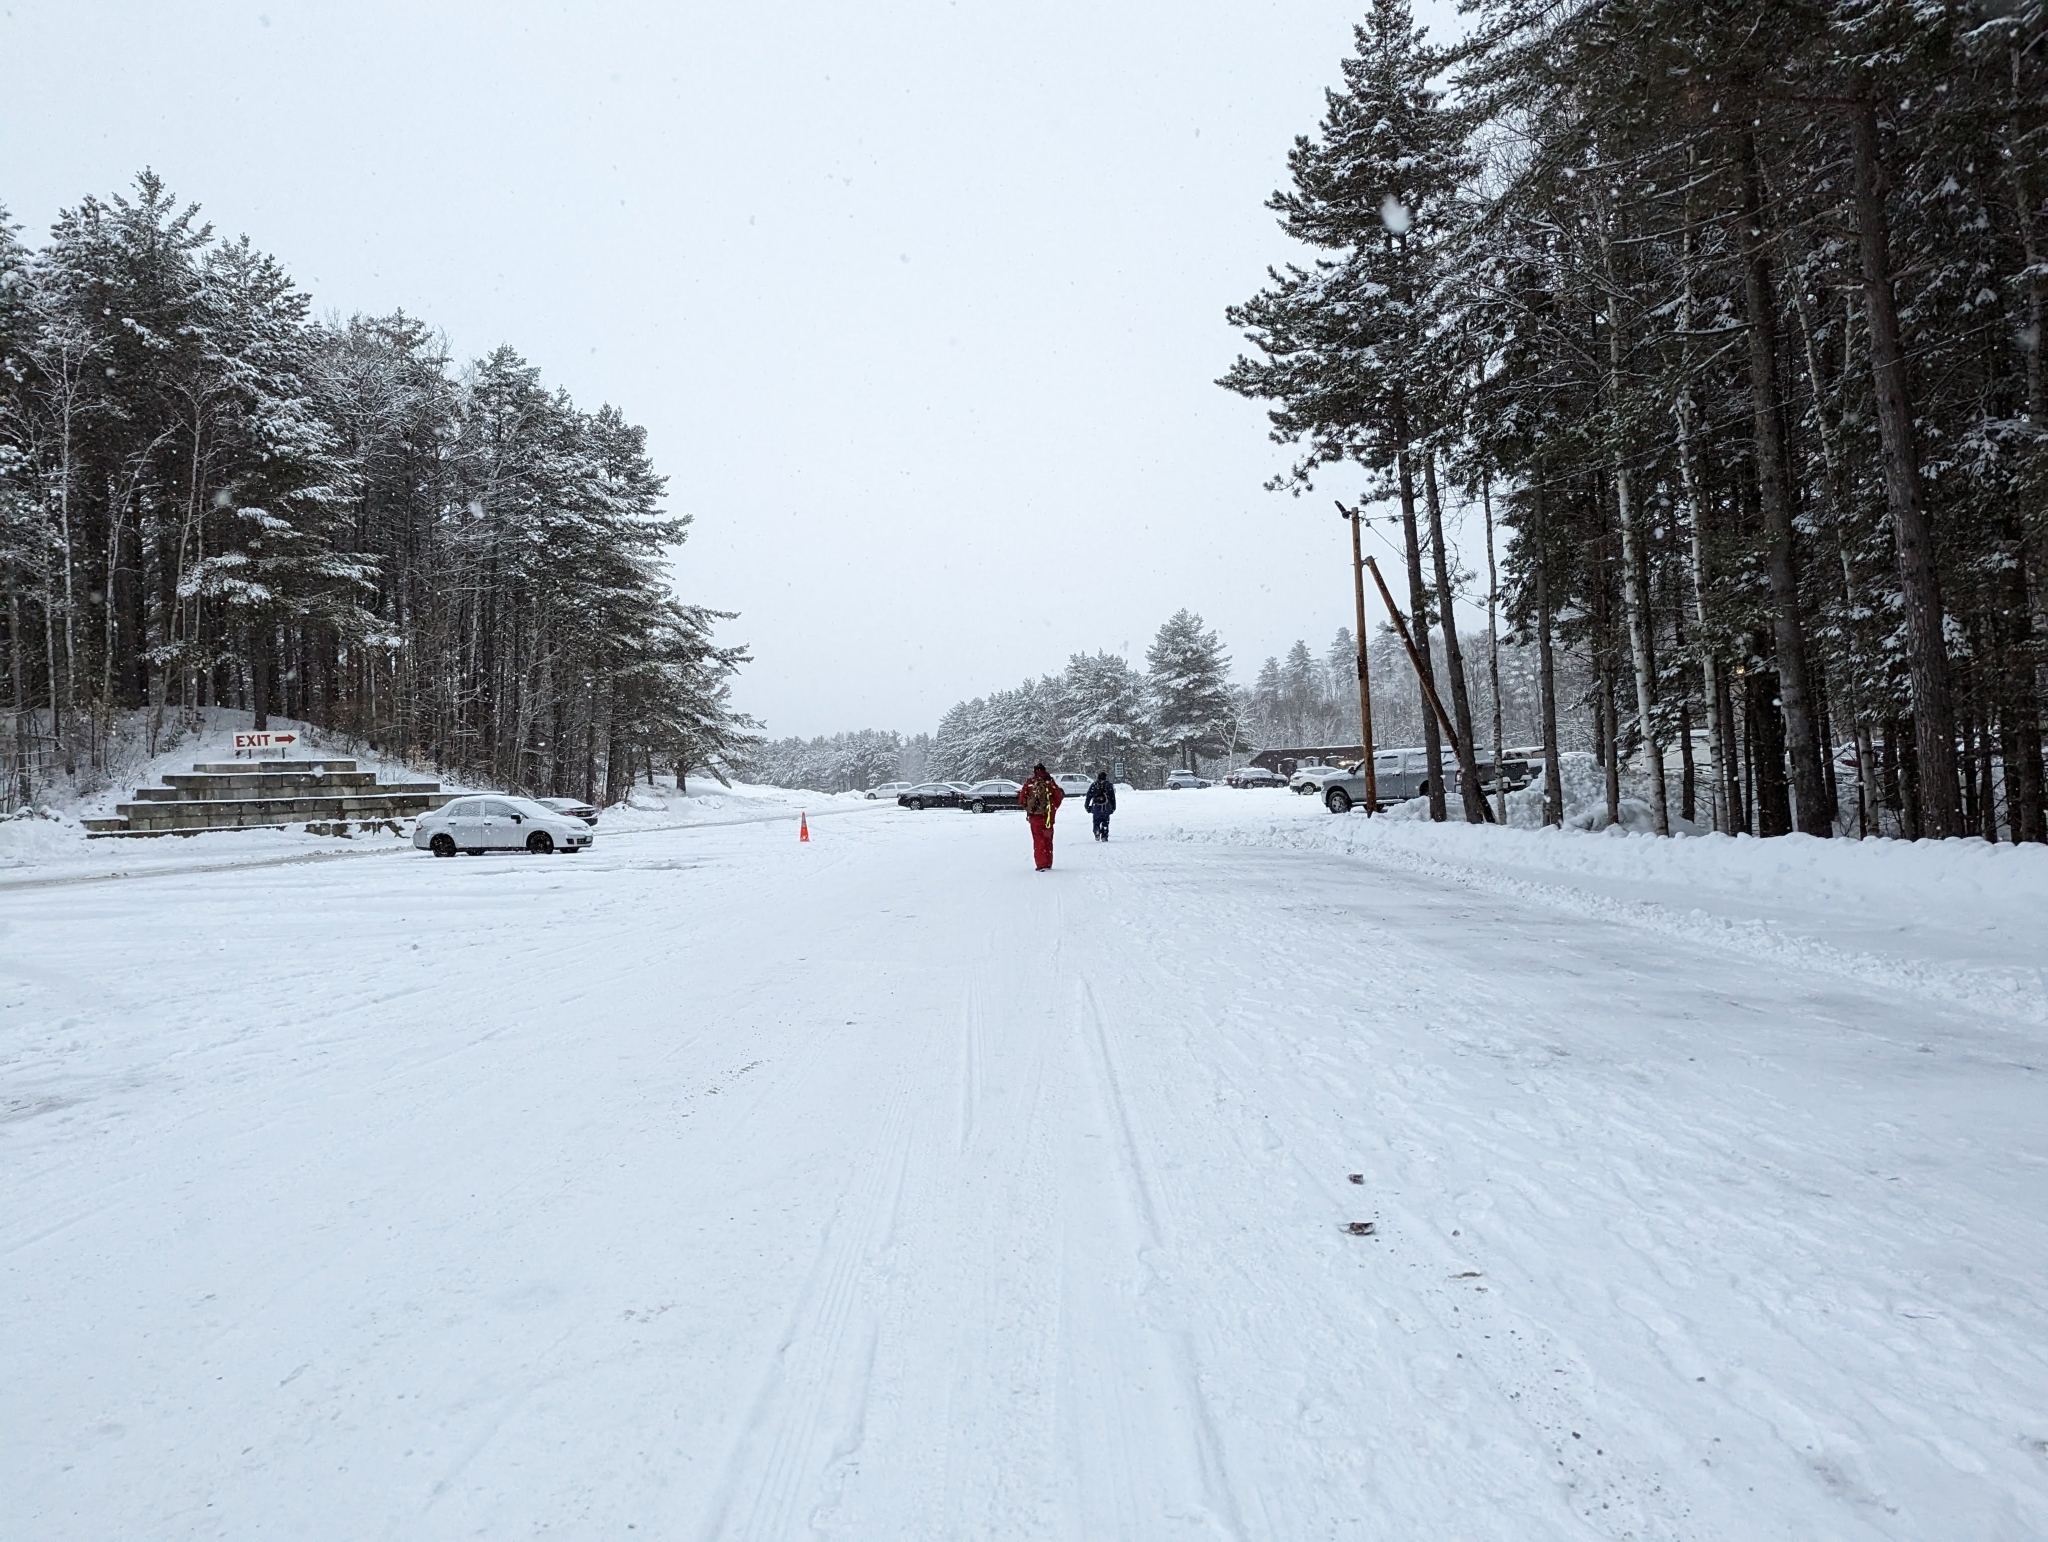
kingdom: Plantae
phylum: Tracheophyta
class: Pinopsida
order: Pinales
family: Pinaceae
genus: Pinus
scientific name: Pinus strobus
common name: Weymouth pine
